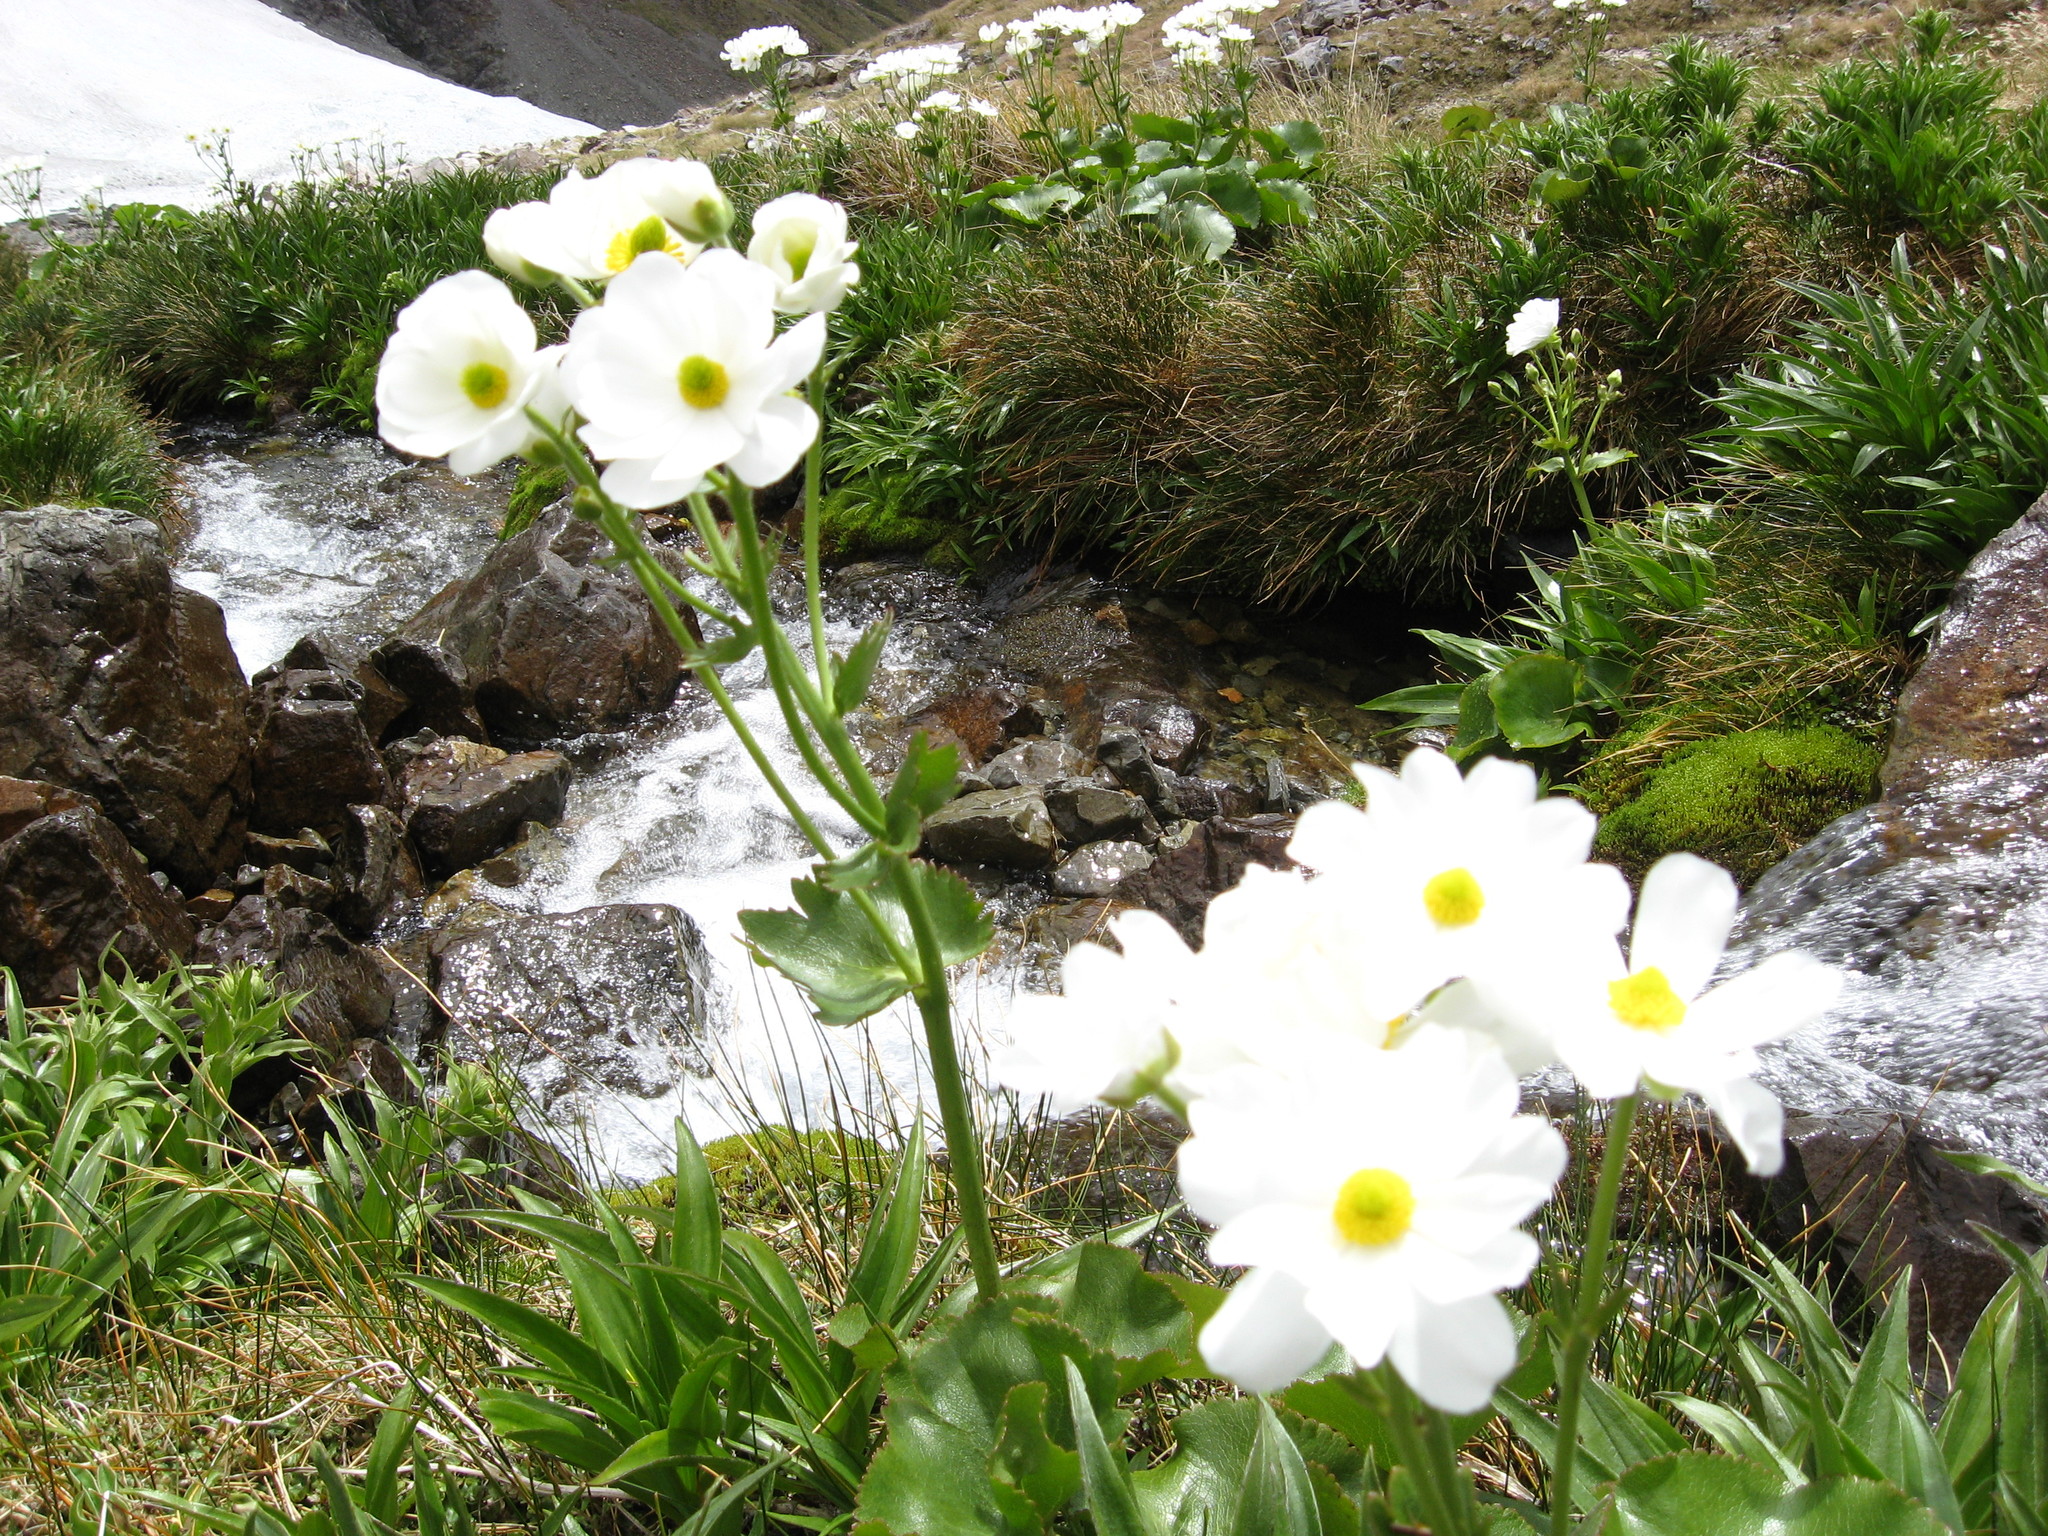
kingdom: Plantae
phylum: Tracheophyta
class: Magnoliopsida
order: Ranunculales
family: Ranunculaceae
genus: Ranunculus
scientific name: Ranunculus lyallii
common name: Mountain-lily
